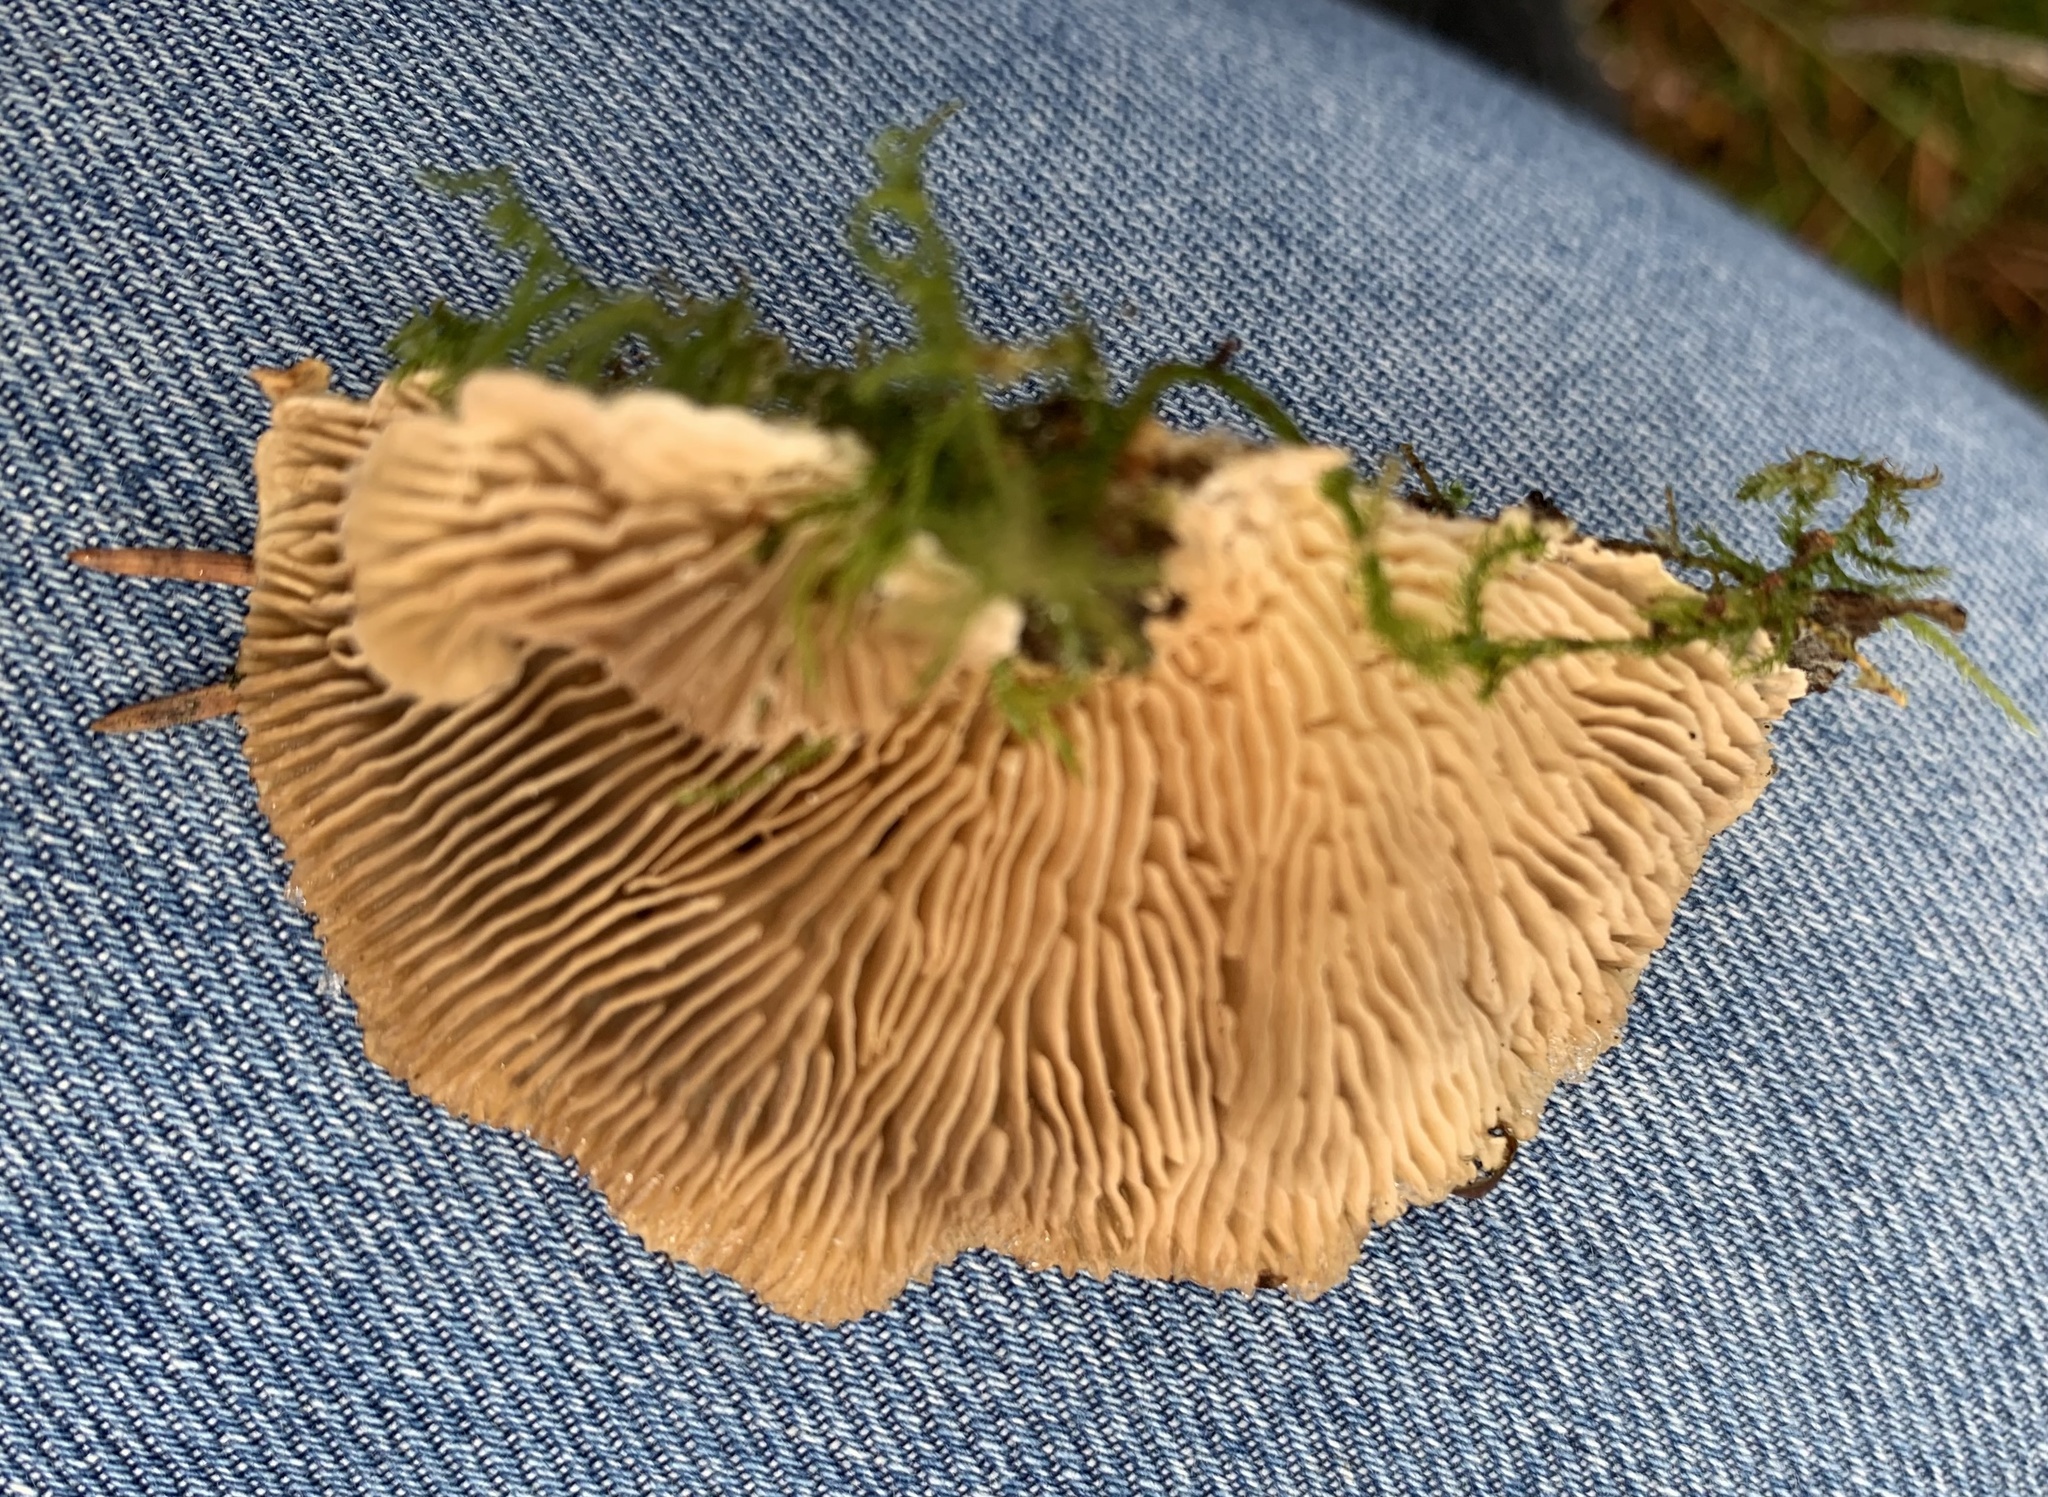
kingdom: Fungi
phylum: Basidiomycota
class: Agaricomycetes
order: Polyporales
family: Polyporaceae
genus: Lenzites
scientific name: Lenzites betulinus
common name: Birch mazegill
